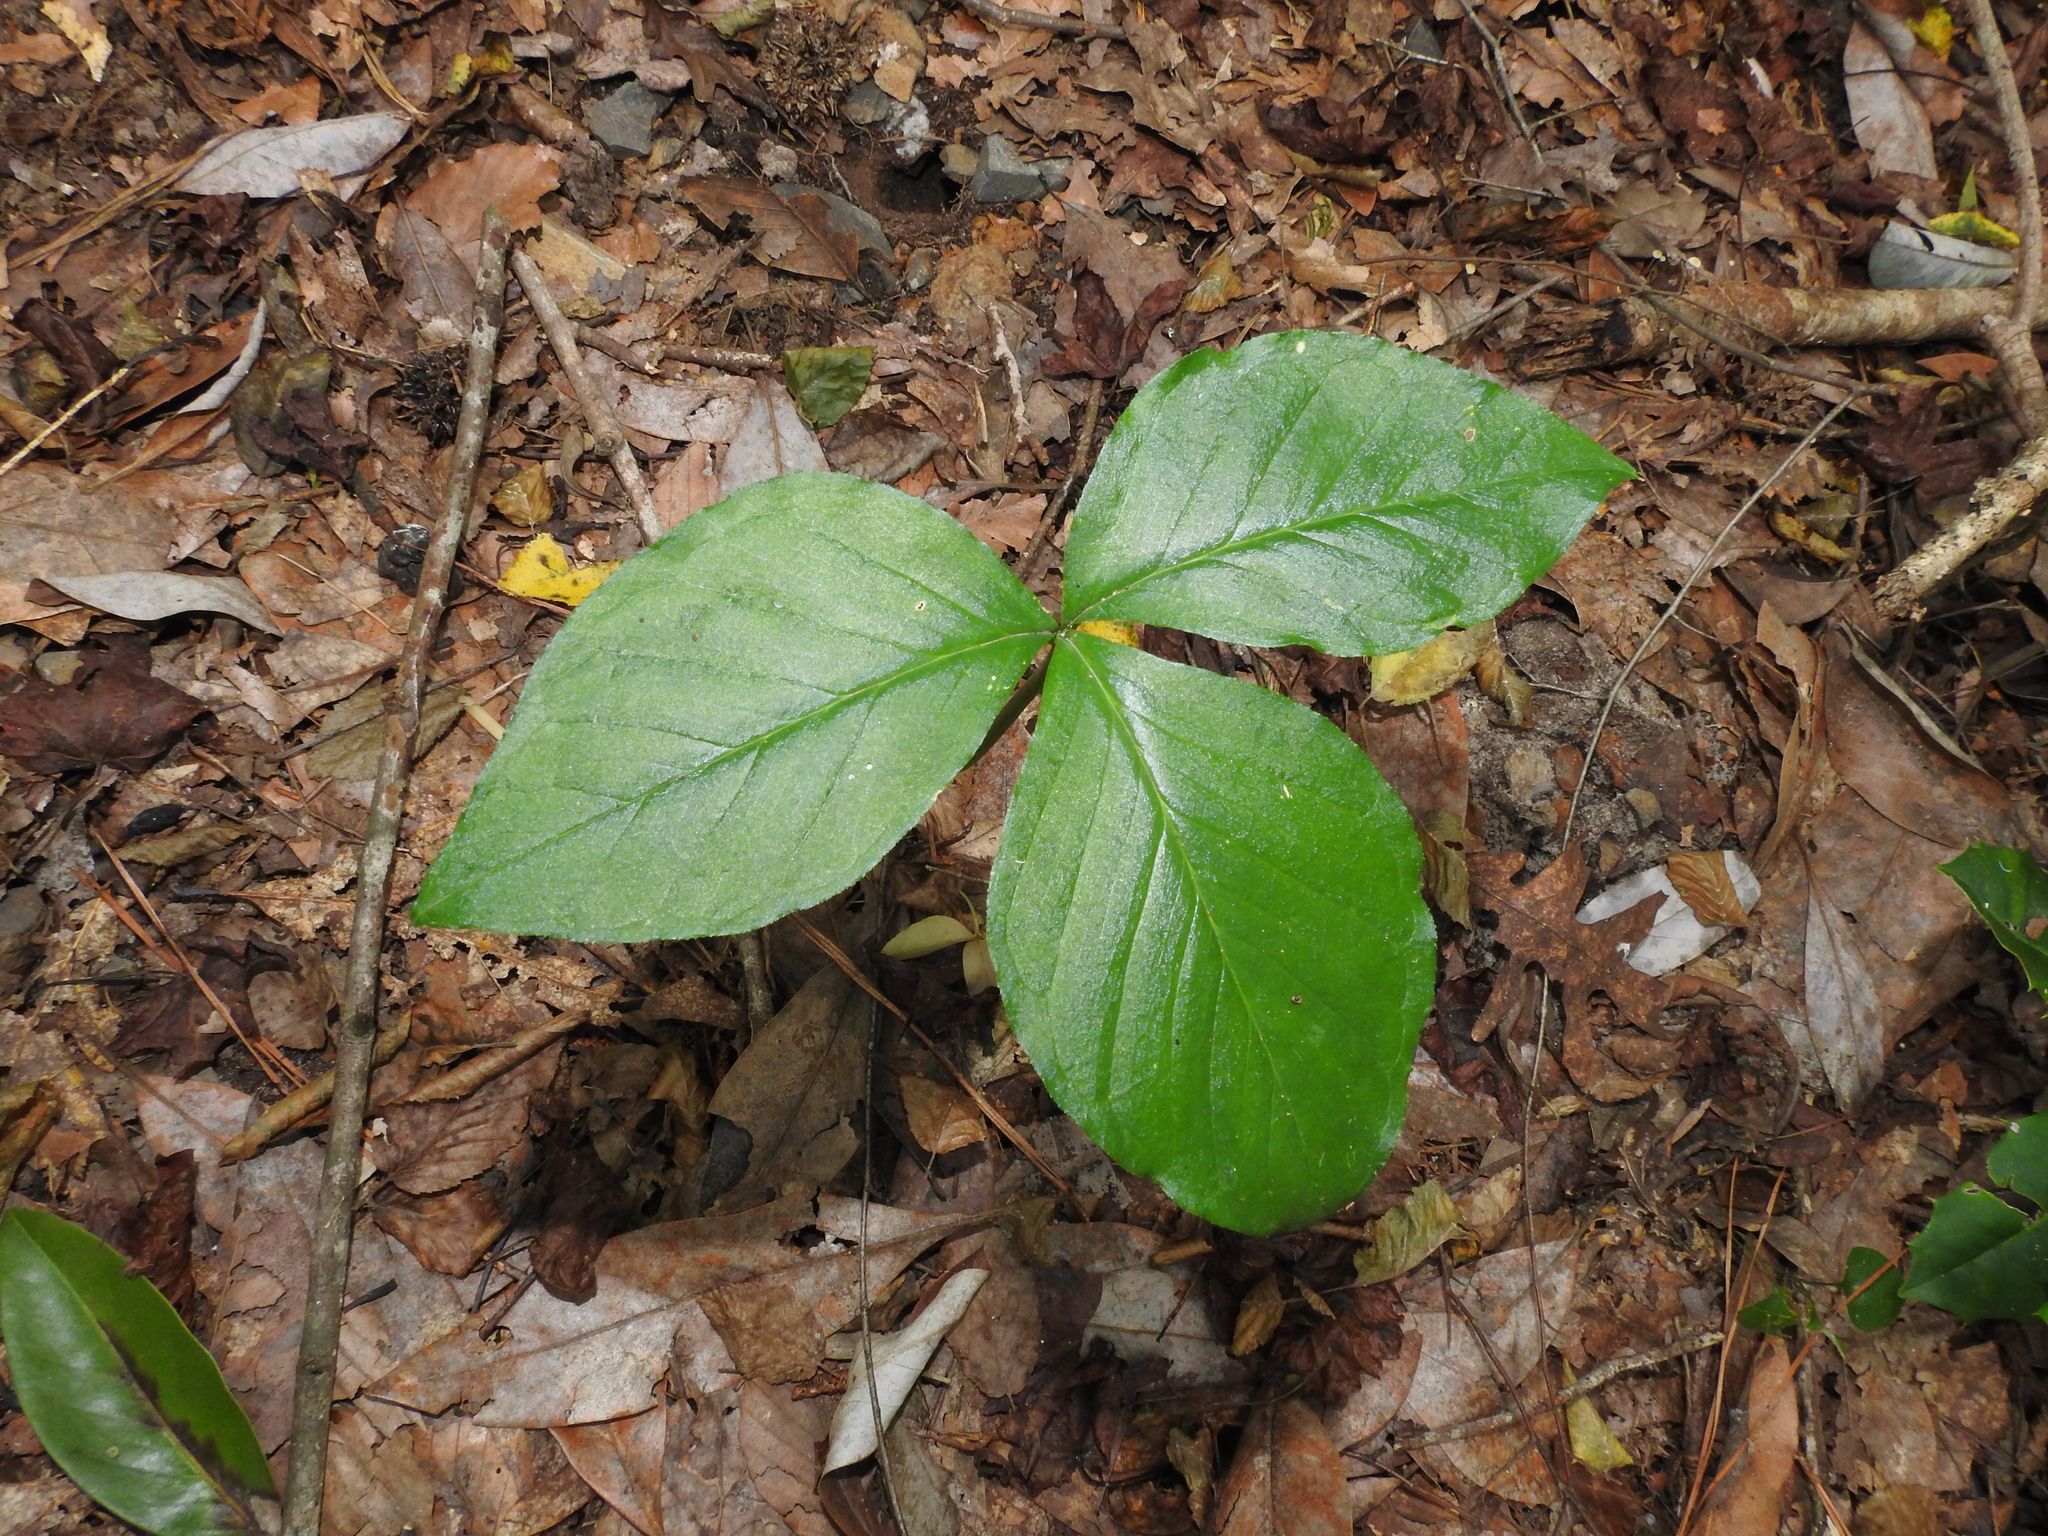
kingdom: Plantae
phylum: Tracheophyta
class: Liliopsida
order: Alismatales
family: Araceae
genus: Arisaema
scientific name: Arisaema triphyllum
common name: Jack-in-the-pulpit
